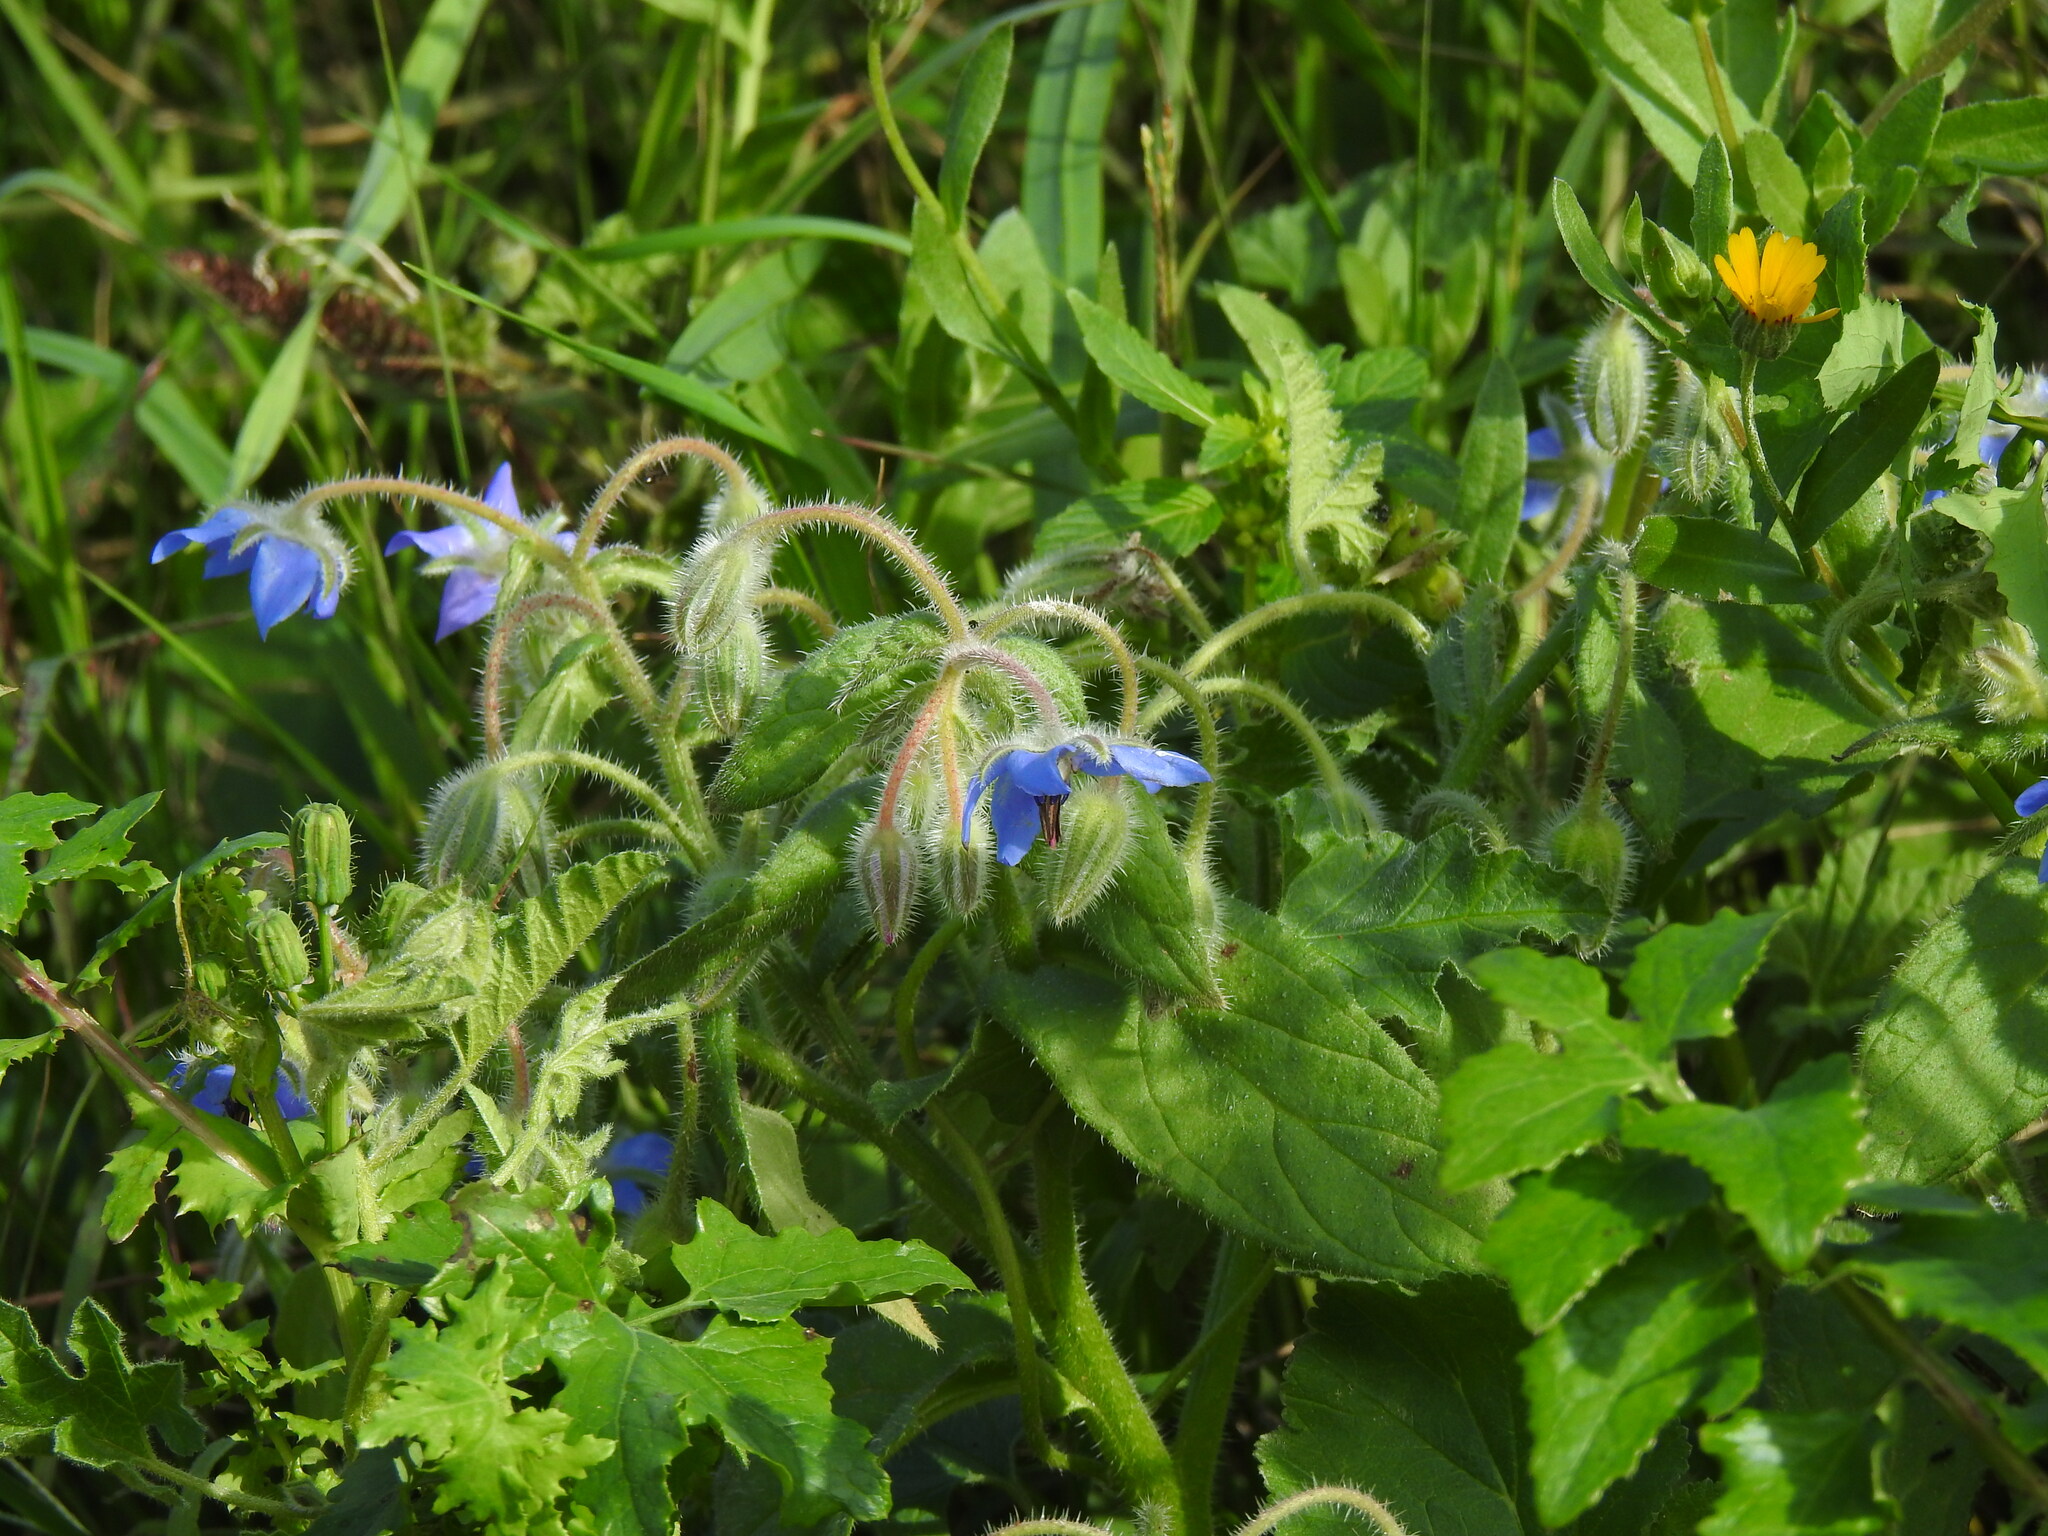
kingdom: Plantae
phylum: Tracheophyta
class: Magnoliopsida
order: Boraginales
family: Boraginaceae
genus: Borago
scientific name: Borago officinalis
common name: Borage
